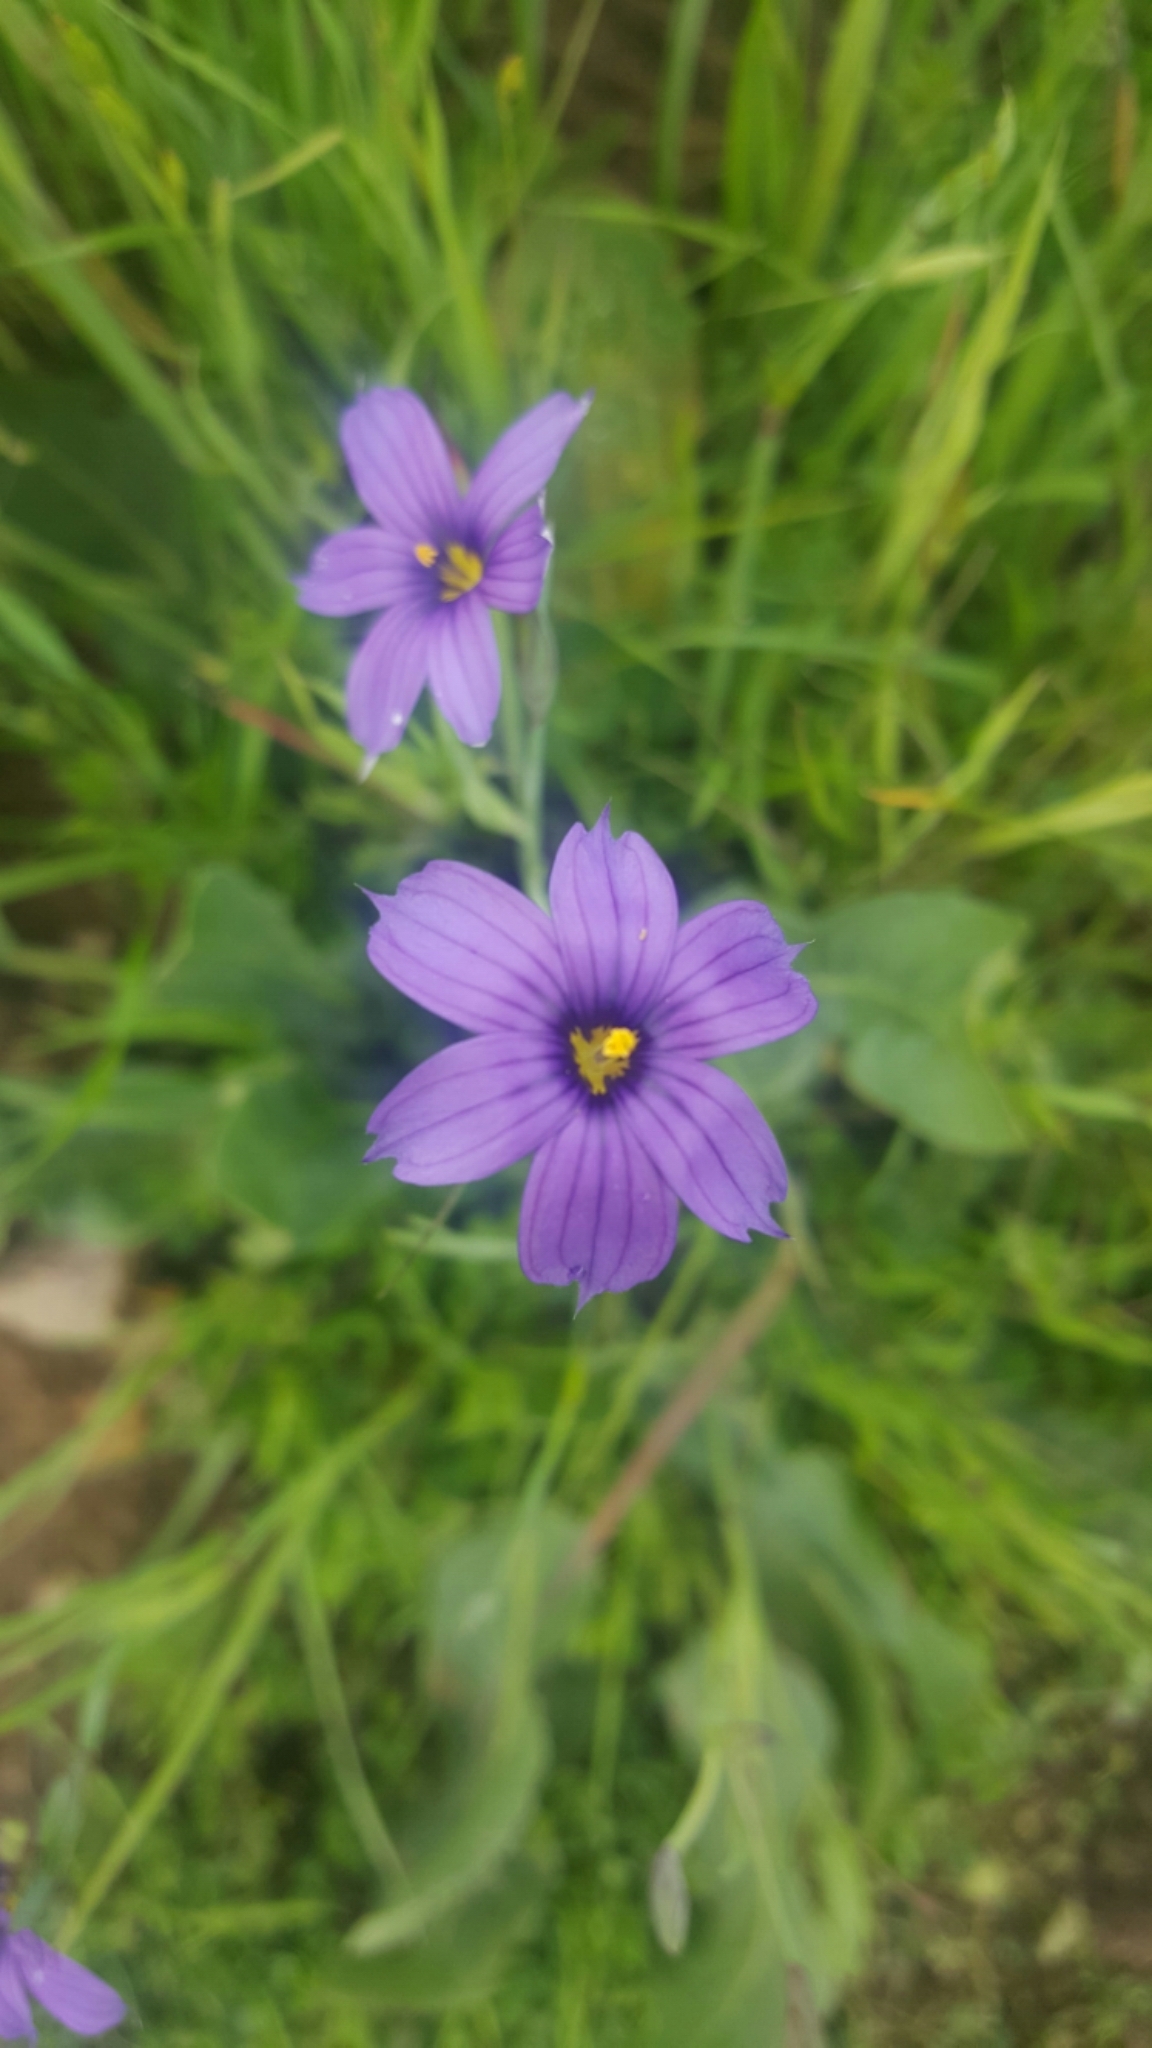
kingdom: Plantae
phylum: Tracheophyta
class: Liliopsida
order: Asparagales
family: Iridaceae
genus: Sisyrinchium
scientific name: Sisyrinchium bellum
